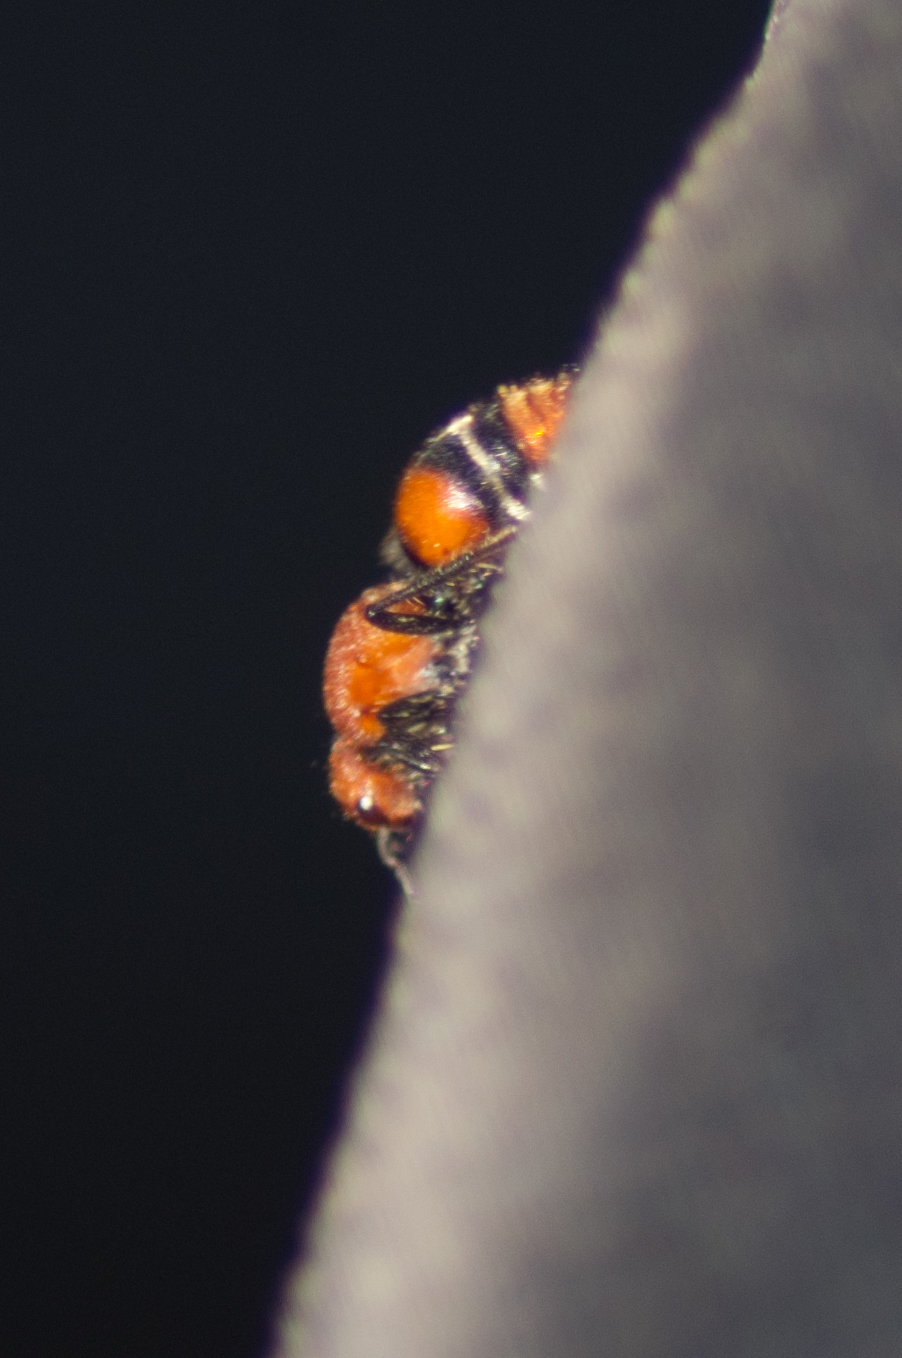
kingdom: Animalia
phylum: Arthropoda
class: Insecta
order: Hymenoptera
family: Mutillidae
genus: Timulla
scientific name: Timulla
